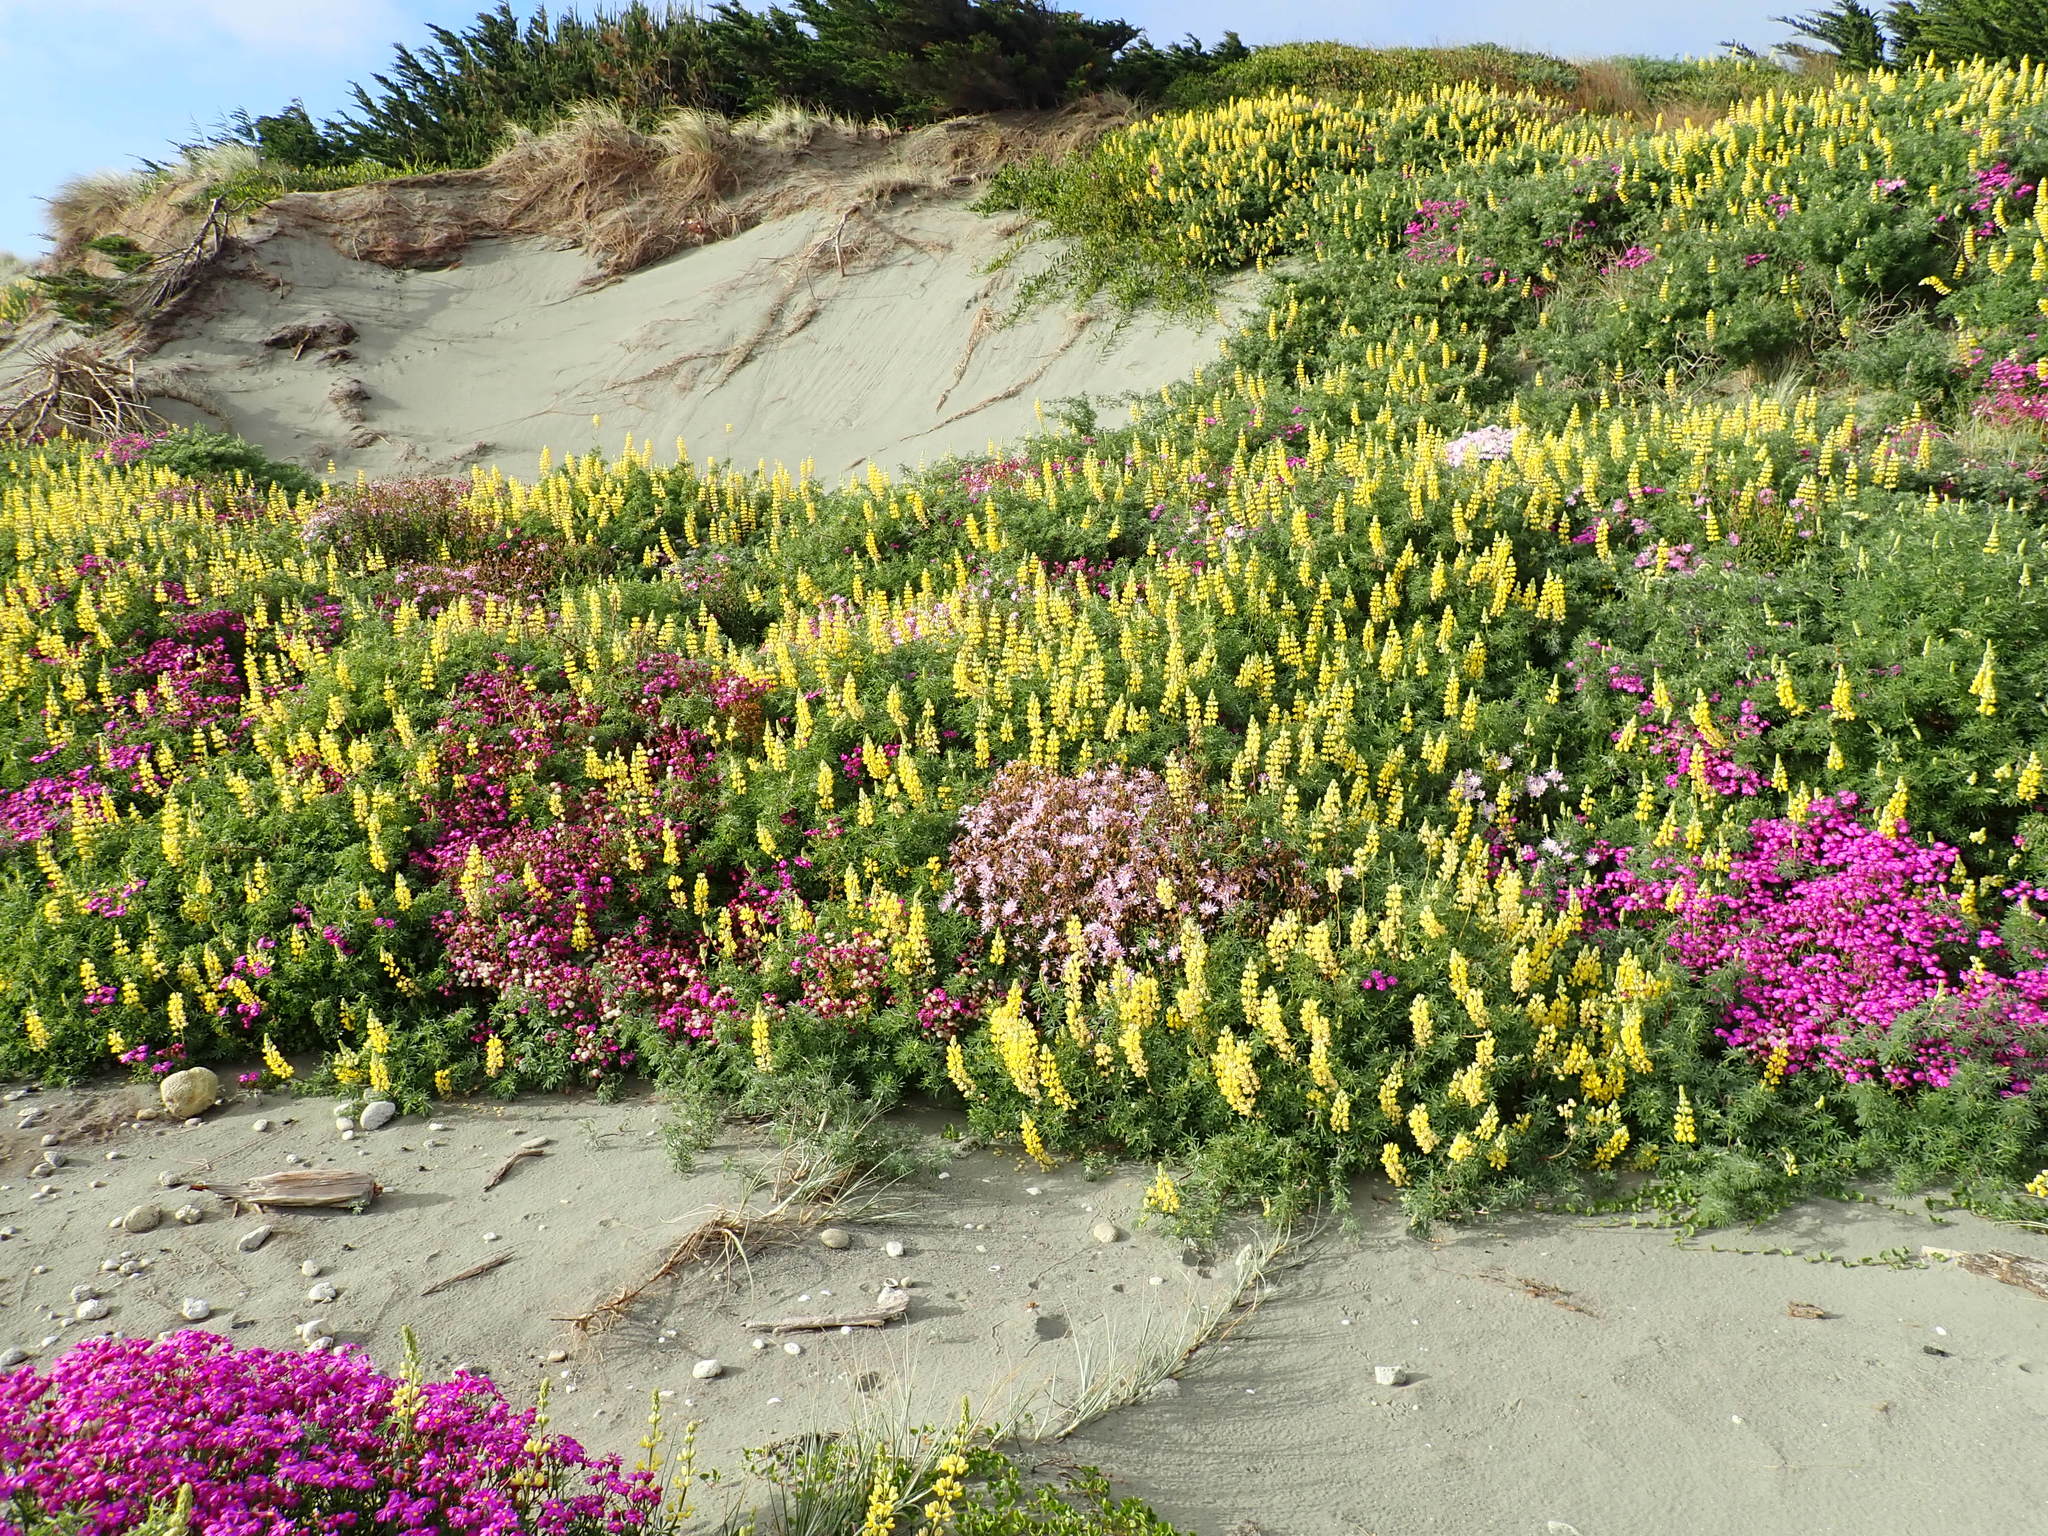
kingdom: Plantae
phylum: Tracheophyta
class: Magnoliopsida
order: Asterales
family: Asteraceae
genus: Senecio
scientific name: Senecio glastifolius
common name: Woad-leaved ragwort
